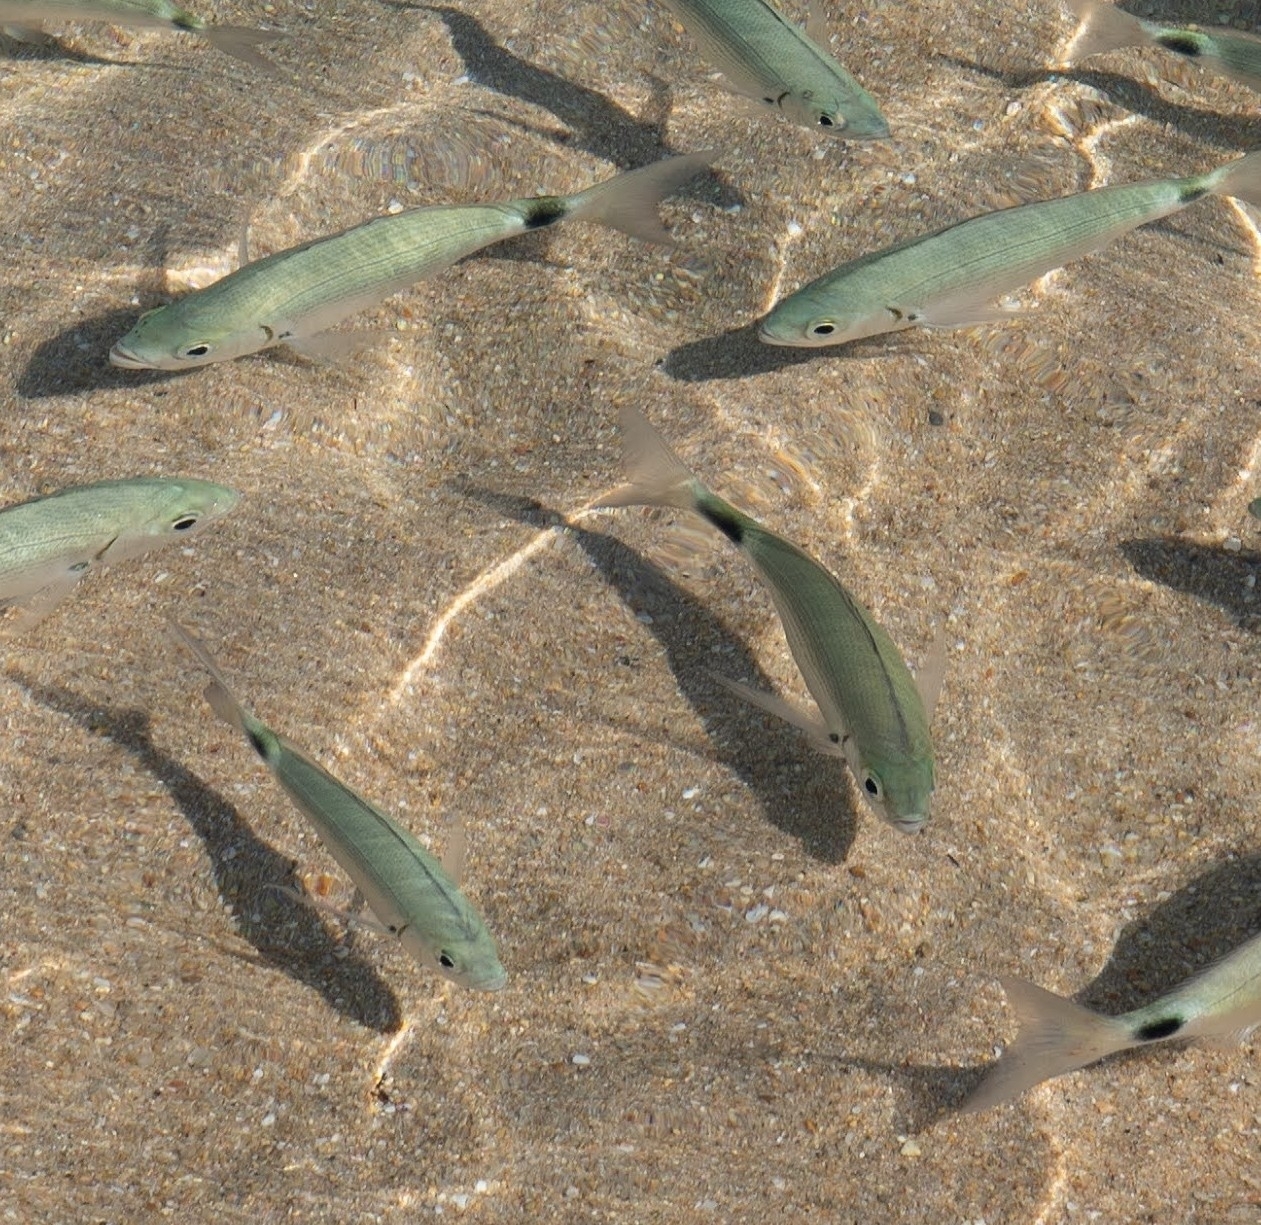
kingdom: Animalia
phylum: Chordata
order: Perciformes
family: Sparidae
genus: Oblada
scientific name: Oblada melanura
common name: Saddled seabream
